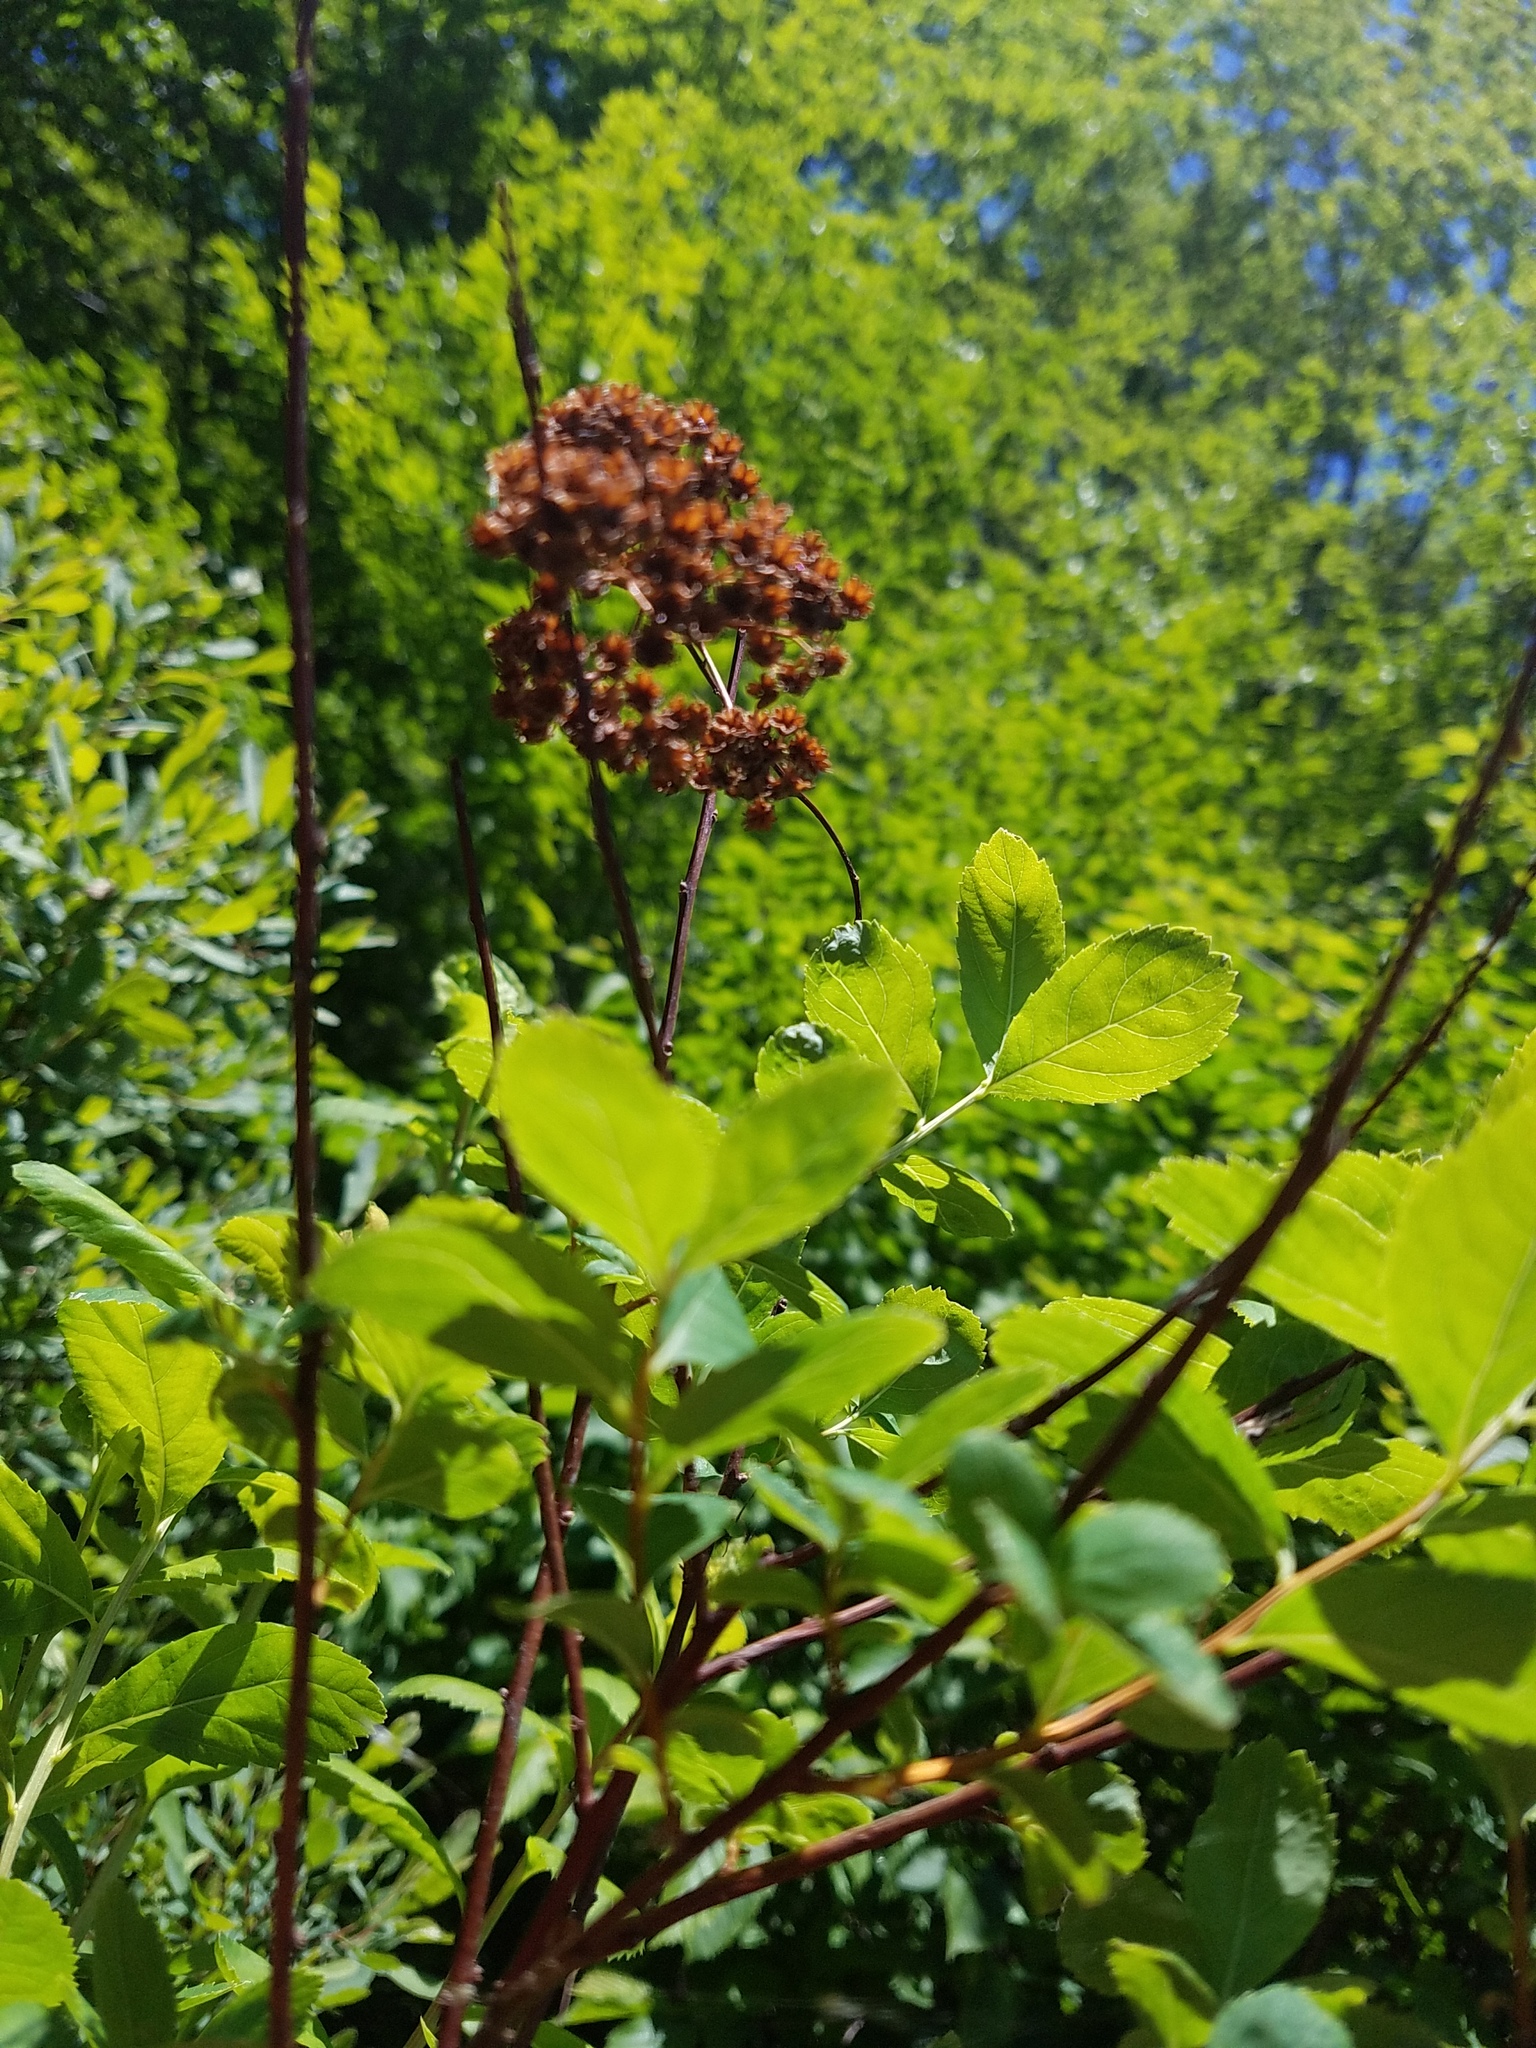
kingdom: Plantae
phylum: Tracheophyta
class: Magnoliopsida
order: Rosales
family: Rosaceae
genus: Spiraea
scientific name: Spiraea alba
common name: Pale bridewort
